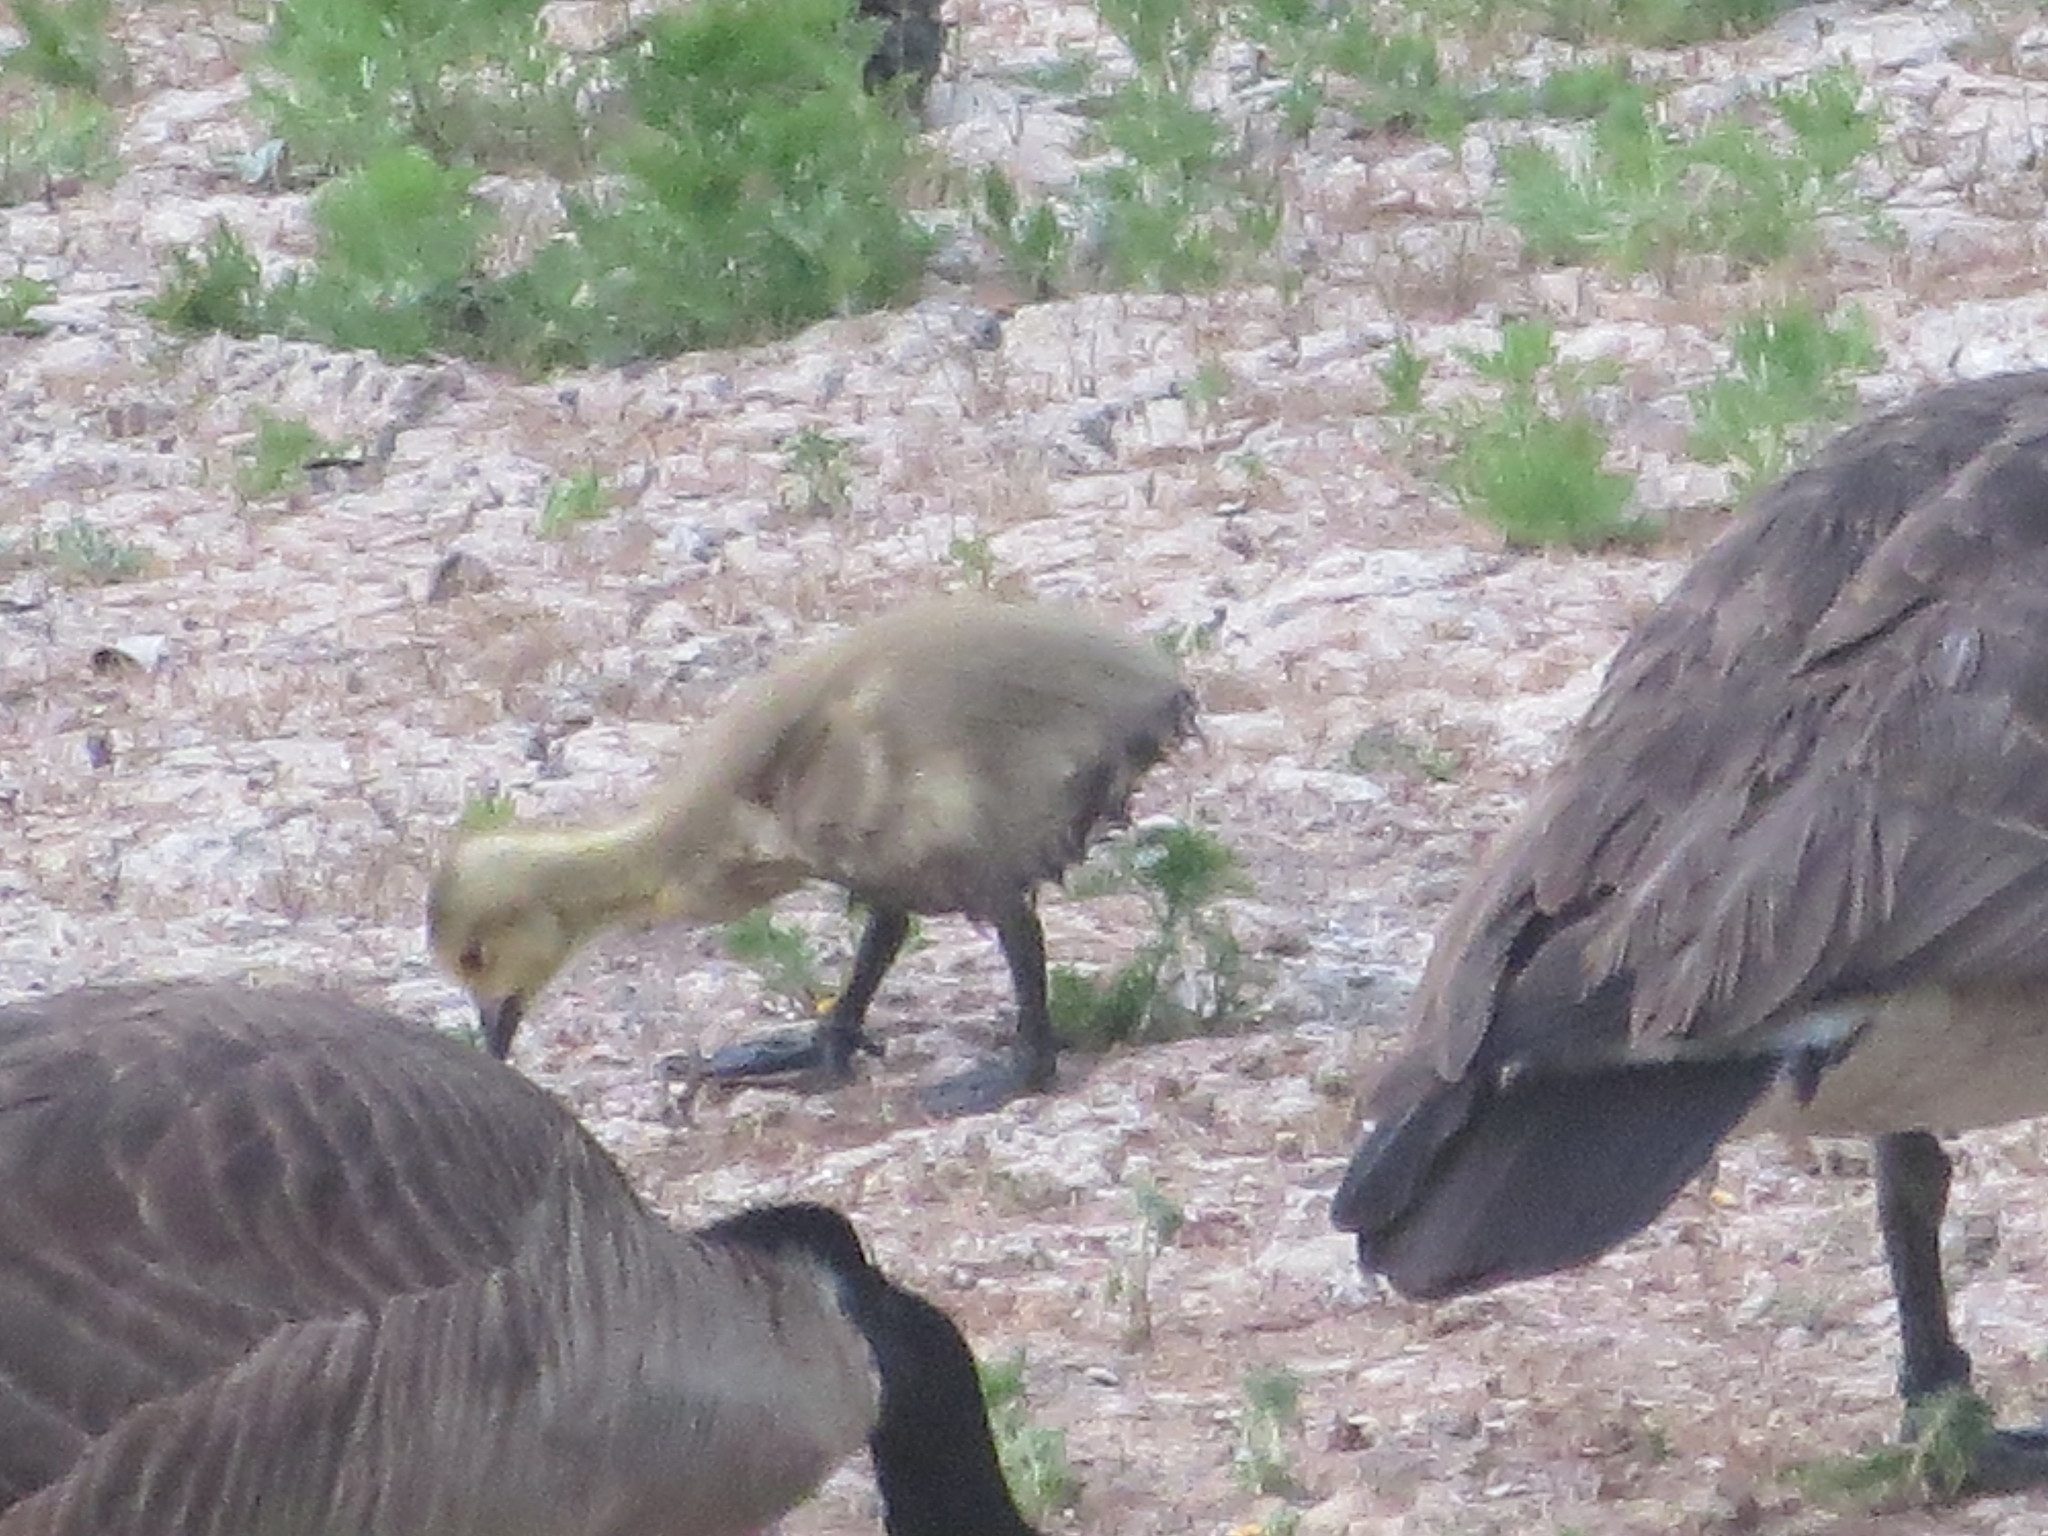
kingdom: Animalia
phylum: Chordata
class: Aves
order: Anseriformes
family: Anatidae
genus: Branta
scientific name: Branta canadensis
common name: Canada goose
